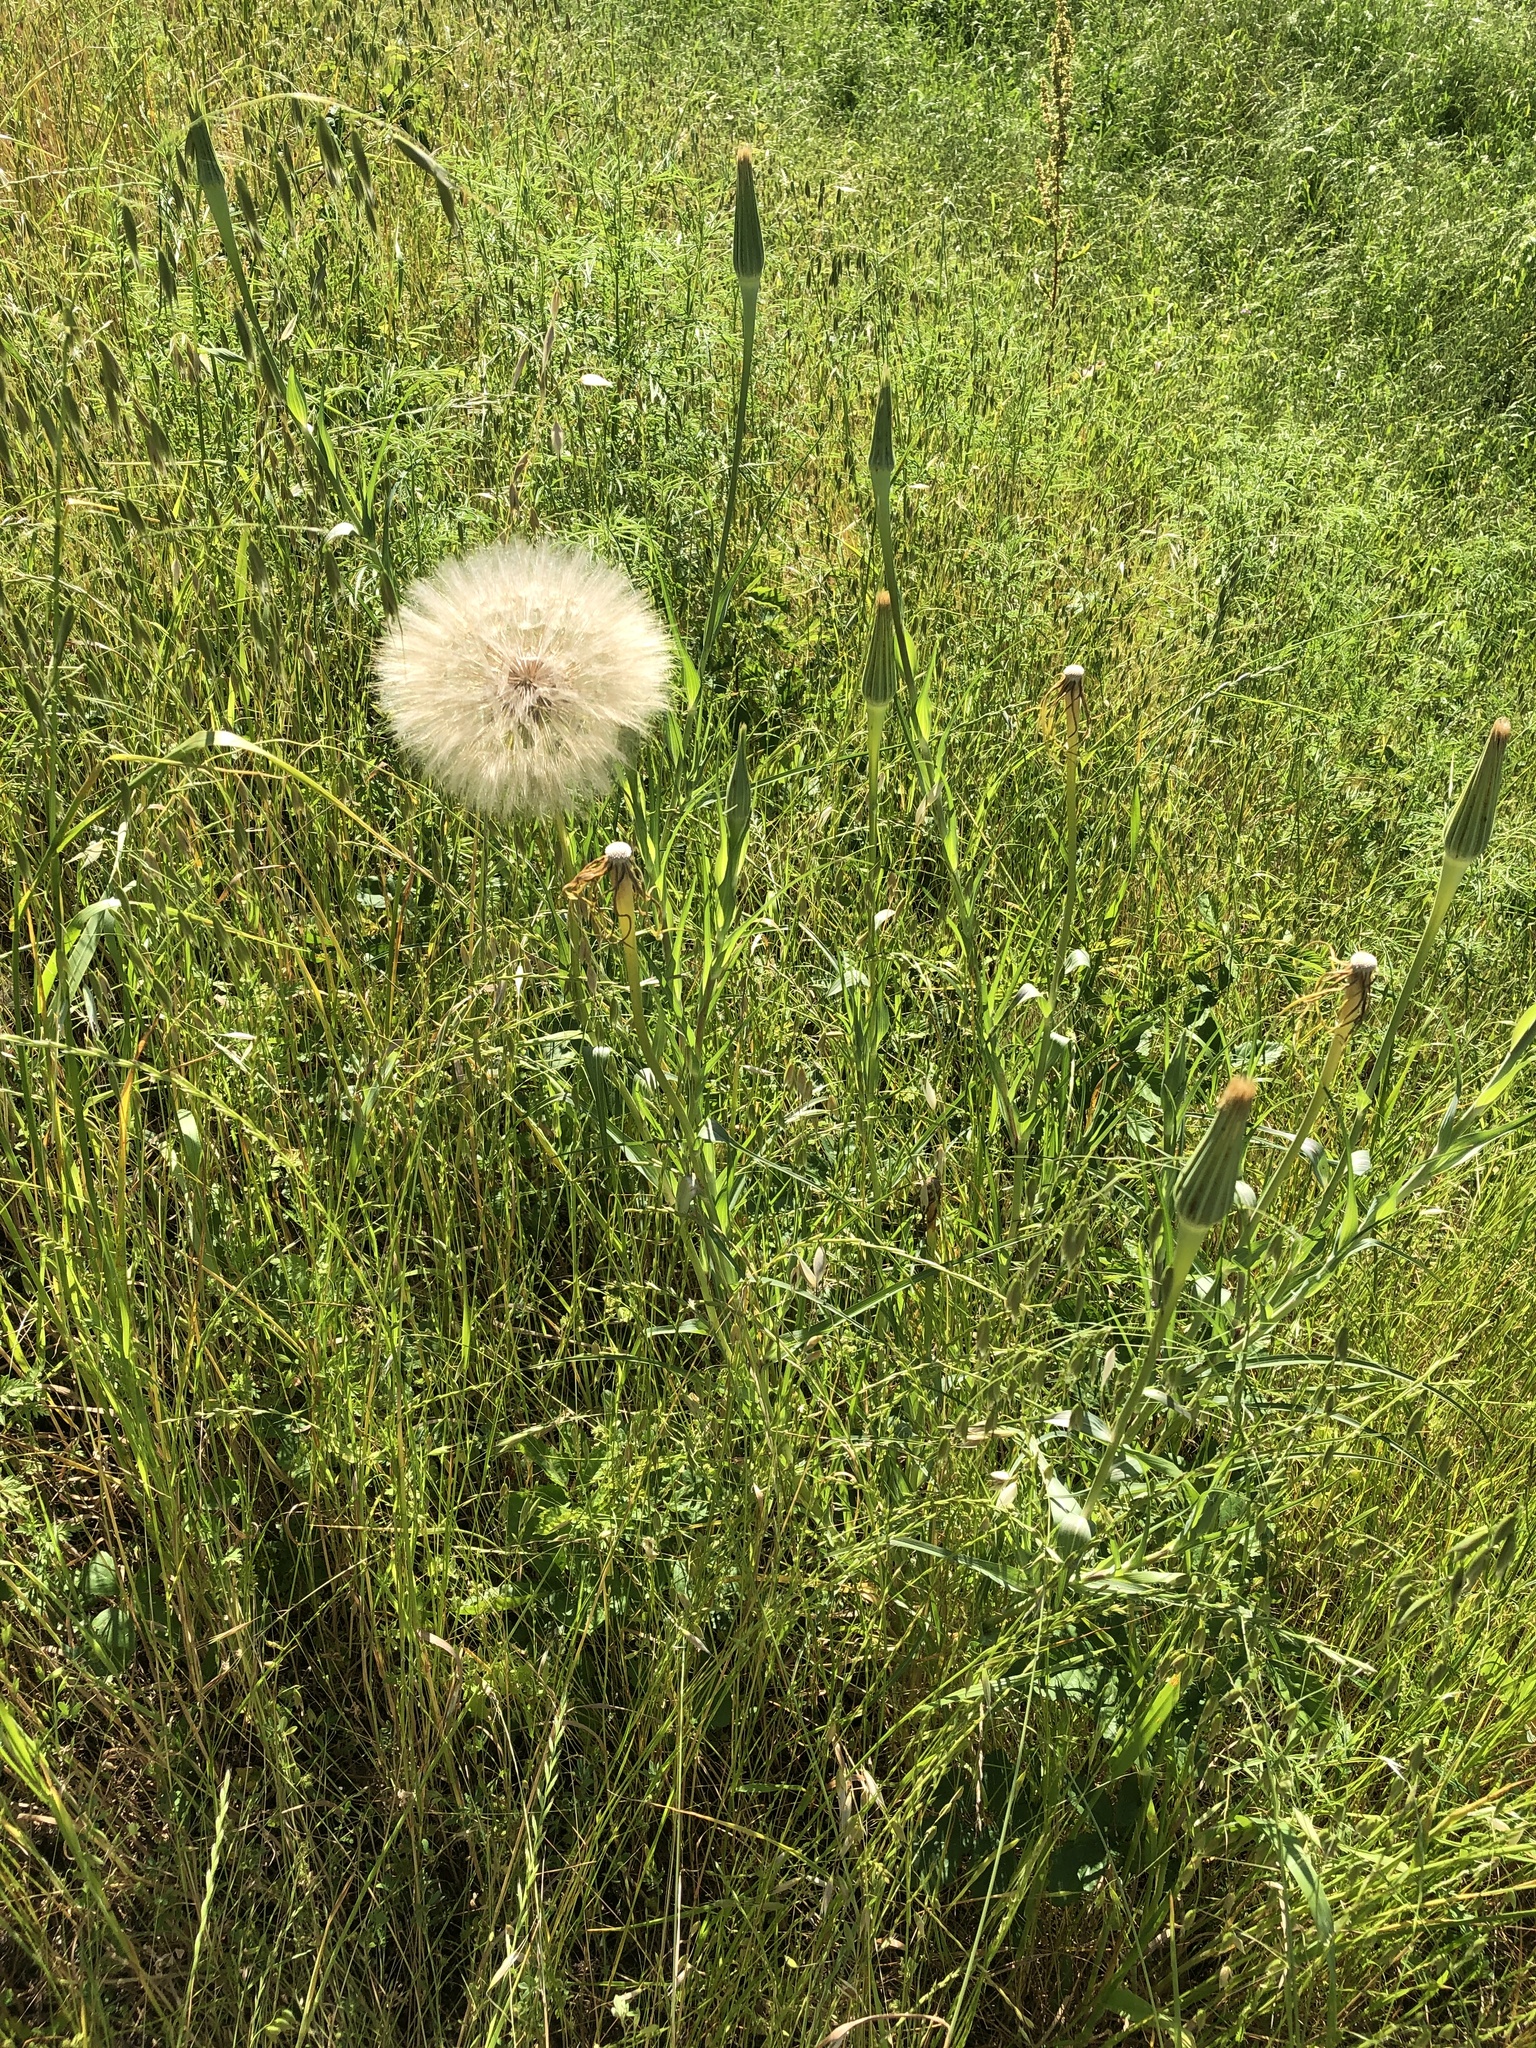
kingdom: Plantae
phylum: Tracheophyta
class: Magnoliopsida
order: Asterales
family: Asteraceae
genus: Tragopogon
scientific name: Tragopogon dubius
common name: Yellow salsify
